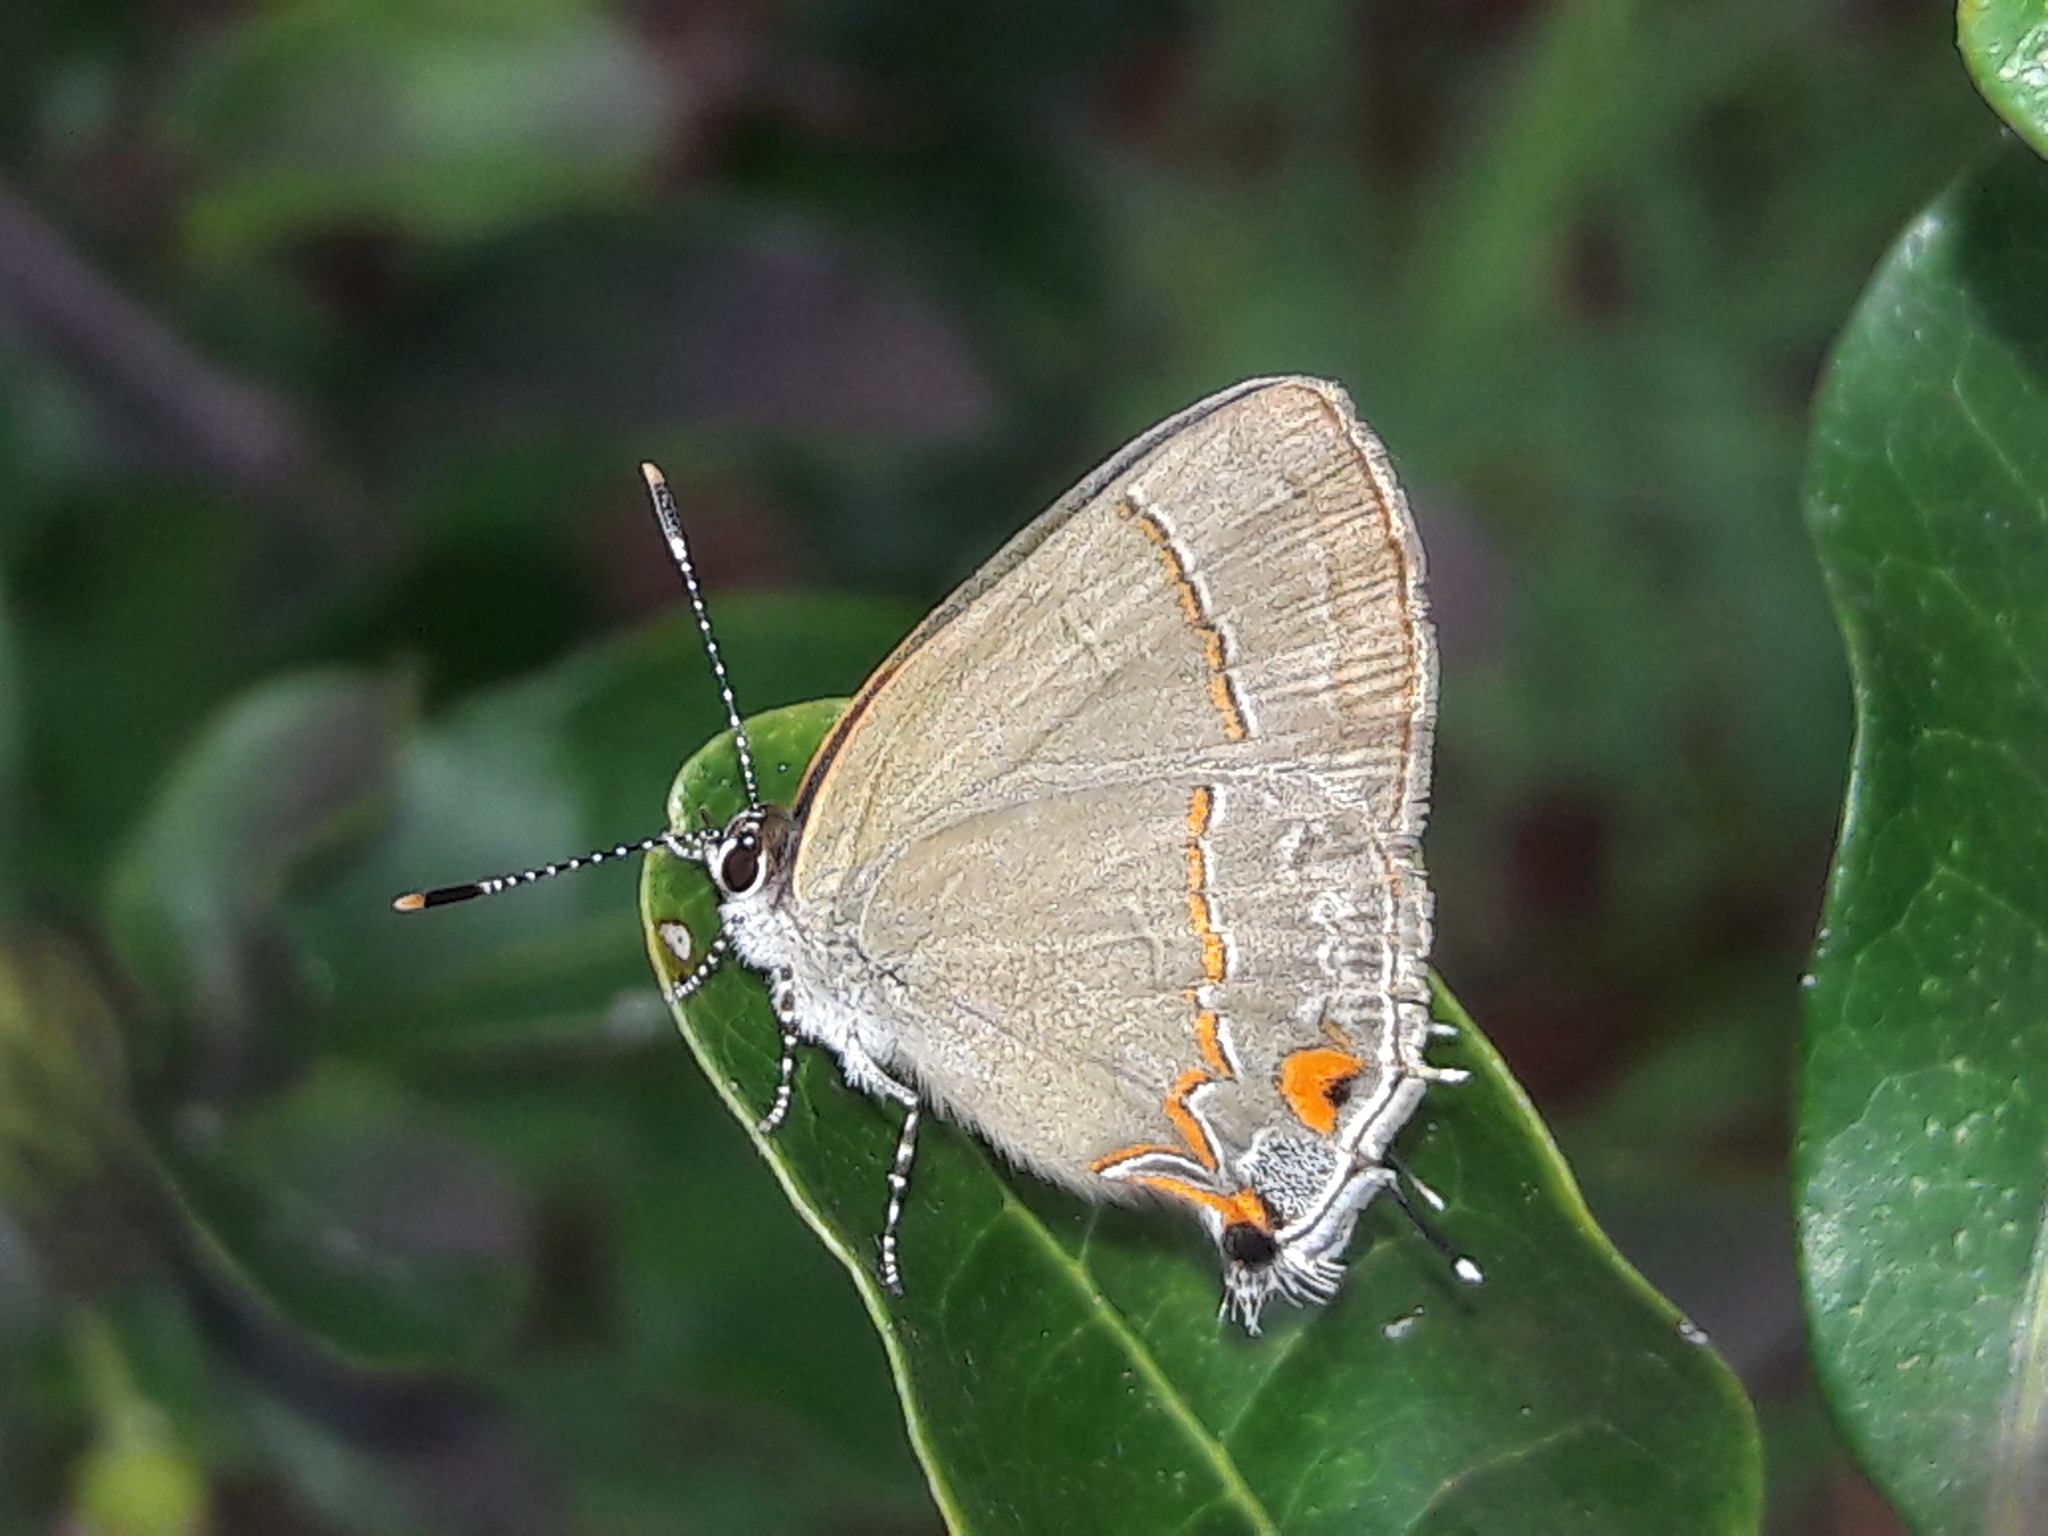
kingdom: Animalia
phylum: Arthropoda
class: Insecta
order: Lepidoptera
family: Lycaenidae
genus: Arzecla
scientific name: Arzecla tucumanensis
